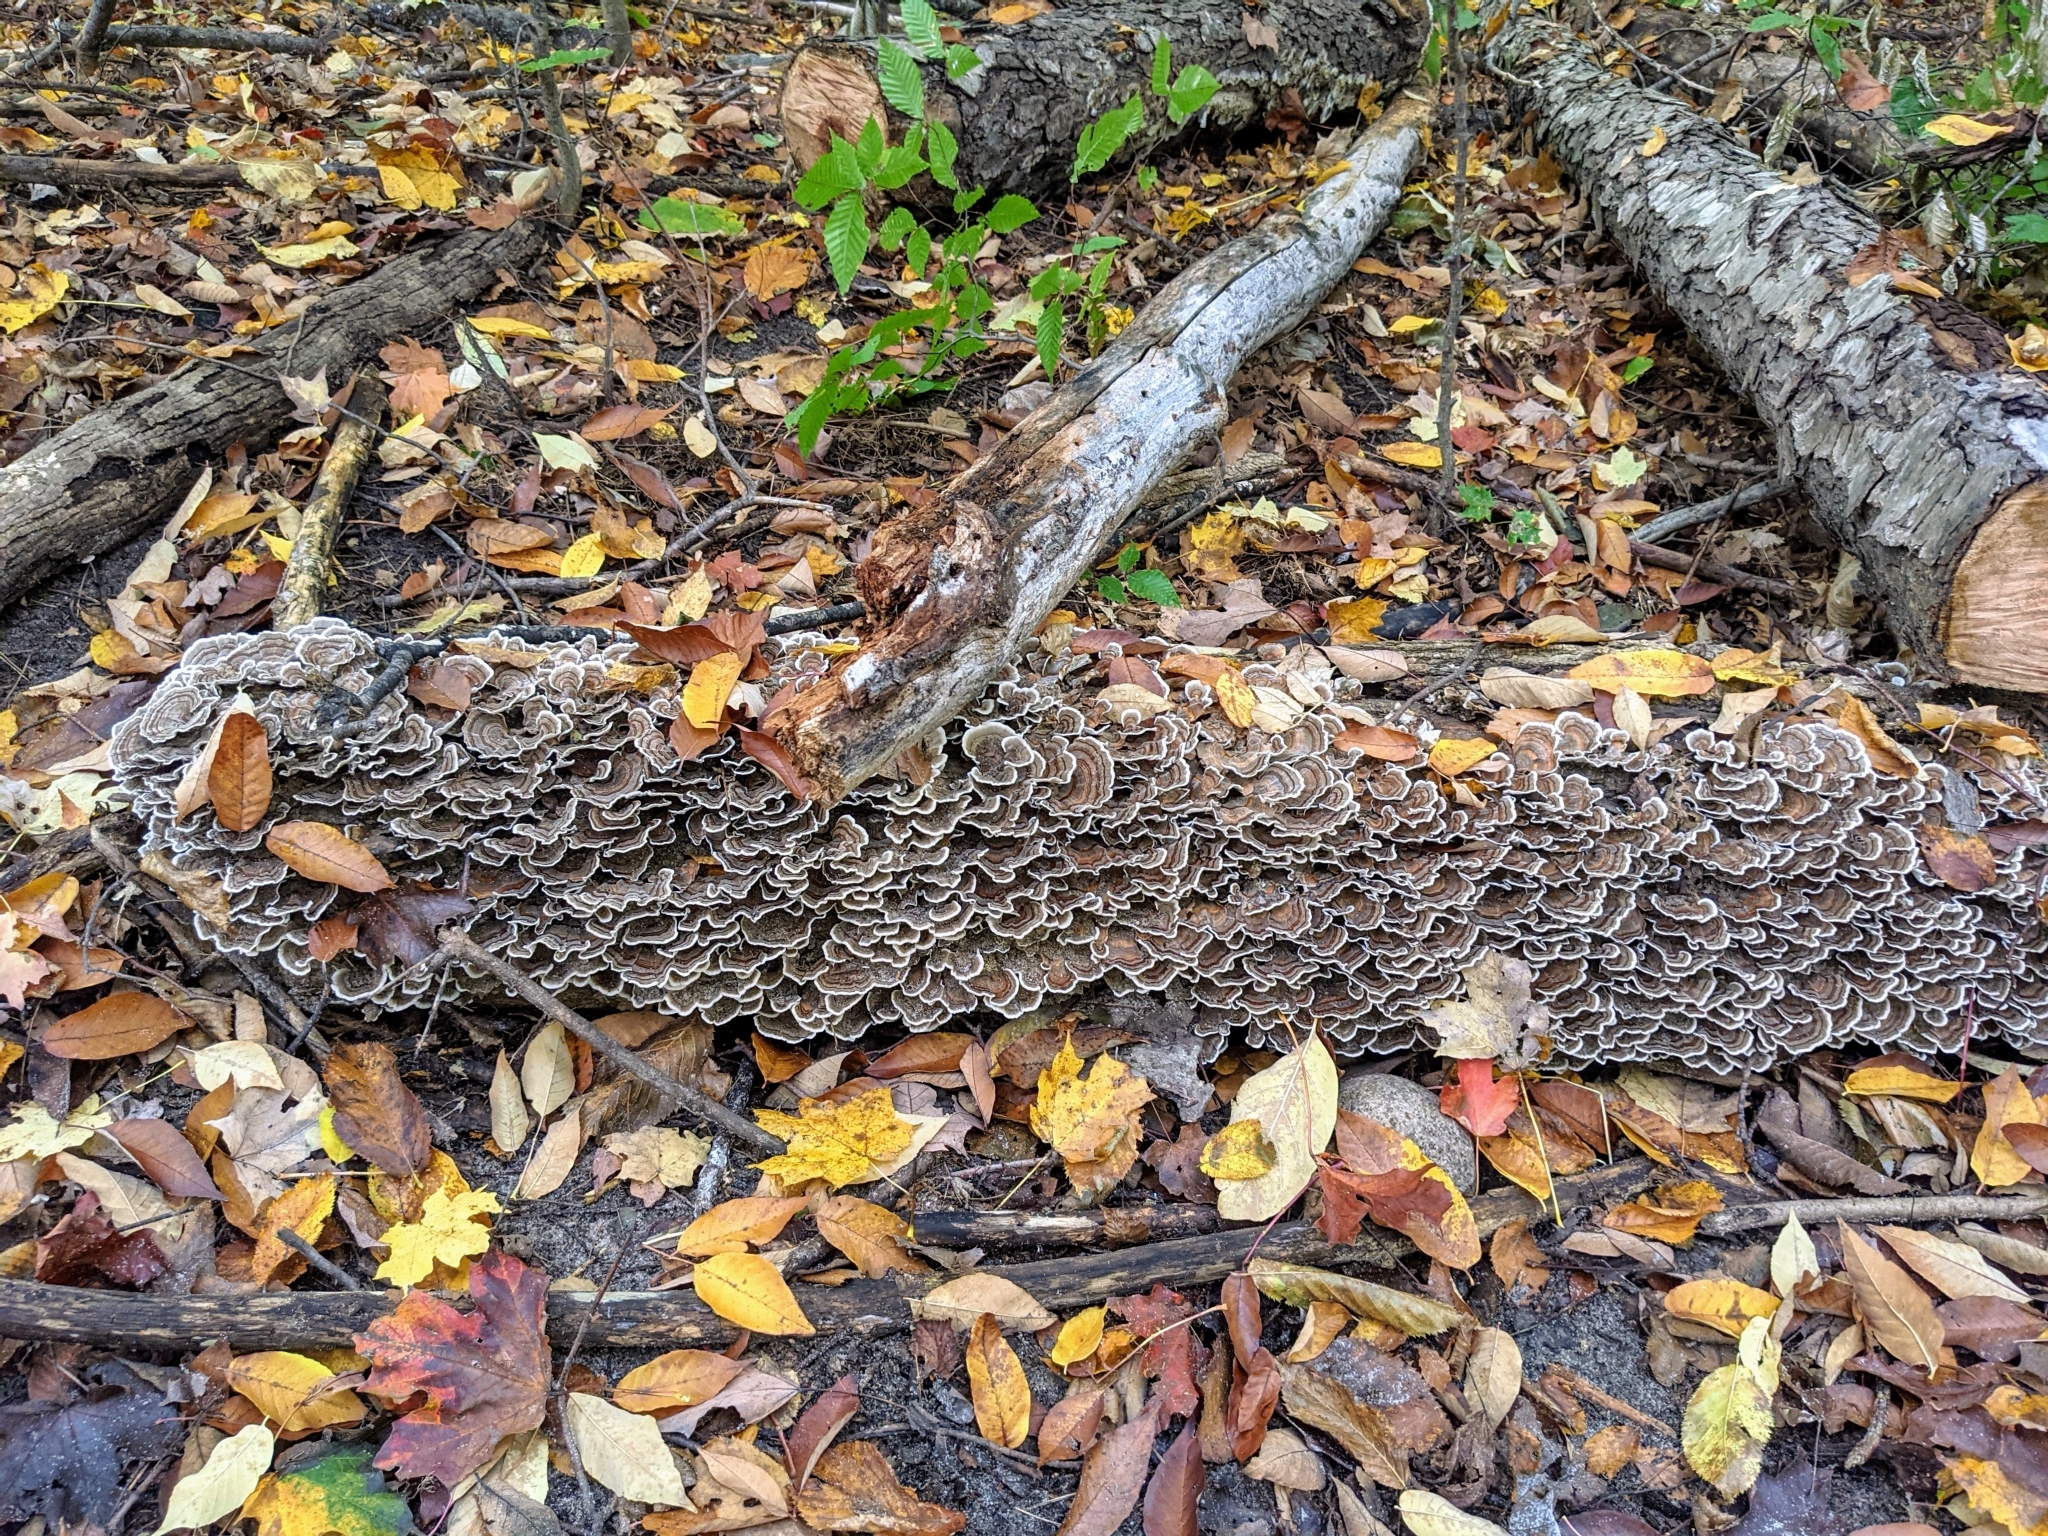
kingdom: Fungi
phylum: Basidiomycota
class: Agaricomycetes
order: Polyporales
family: Polyporaceae
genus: Trametes
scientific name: Trametes versicolor
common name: Turkeytail
